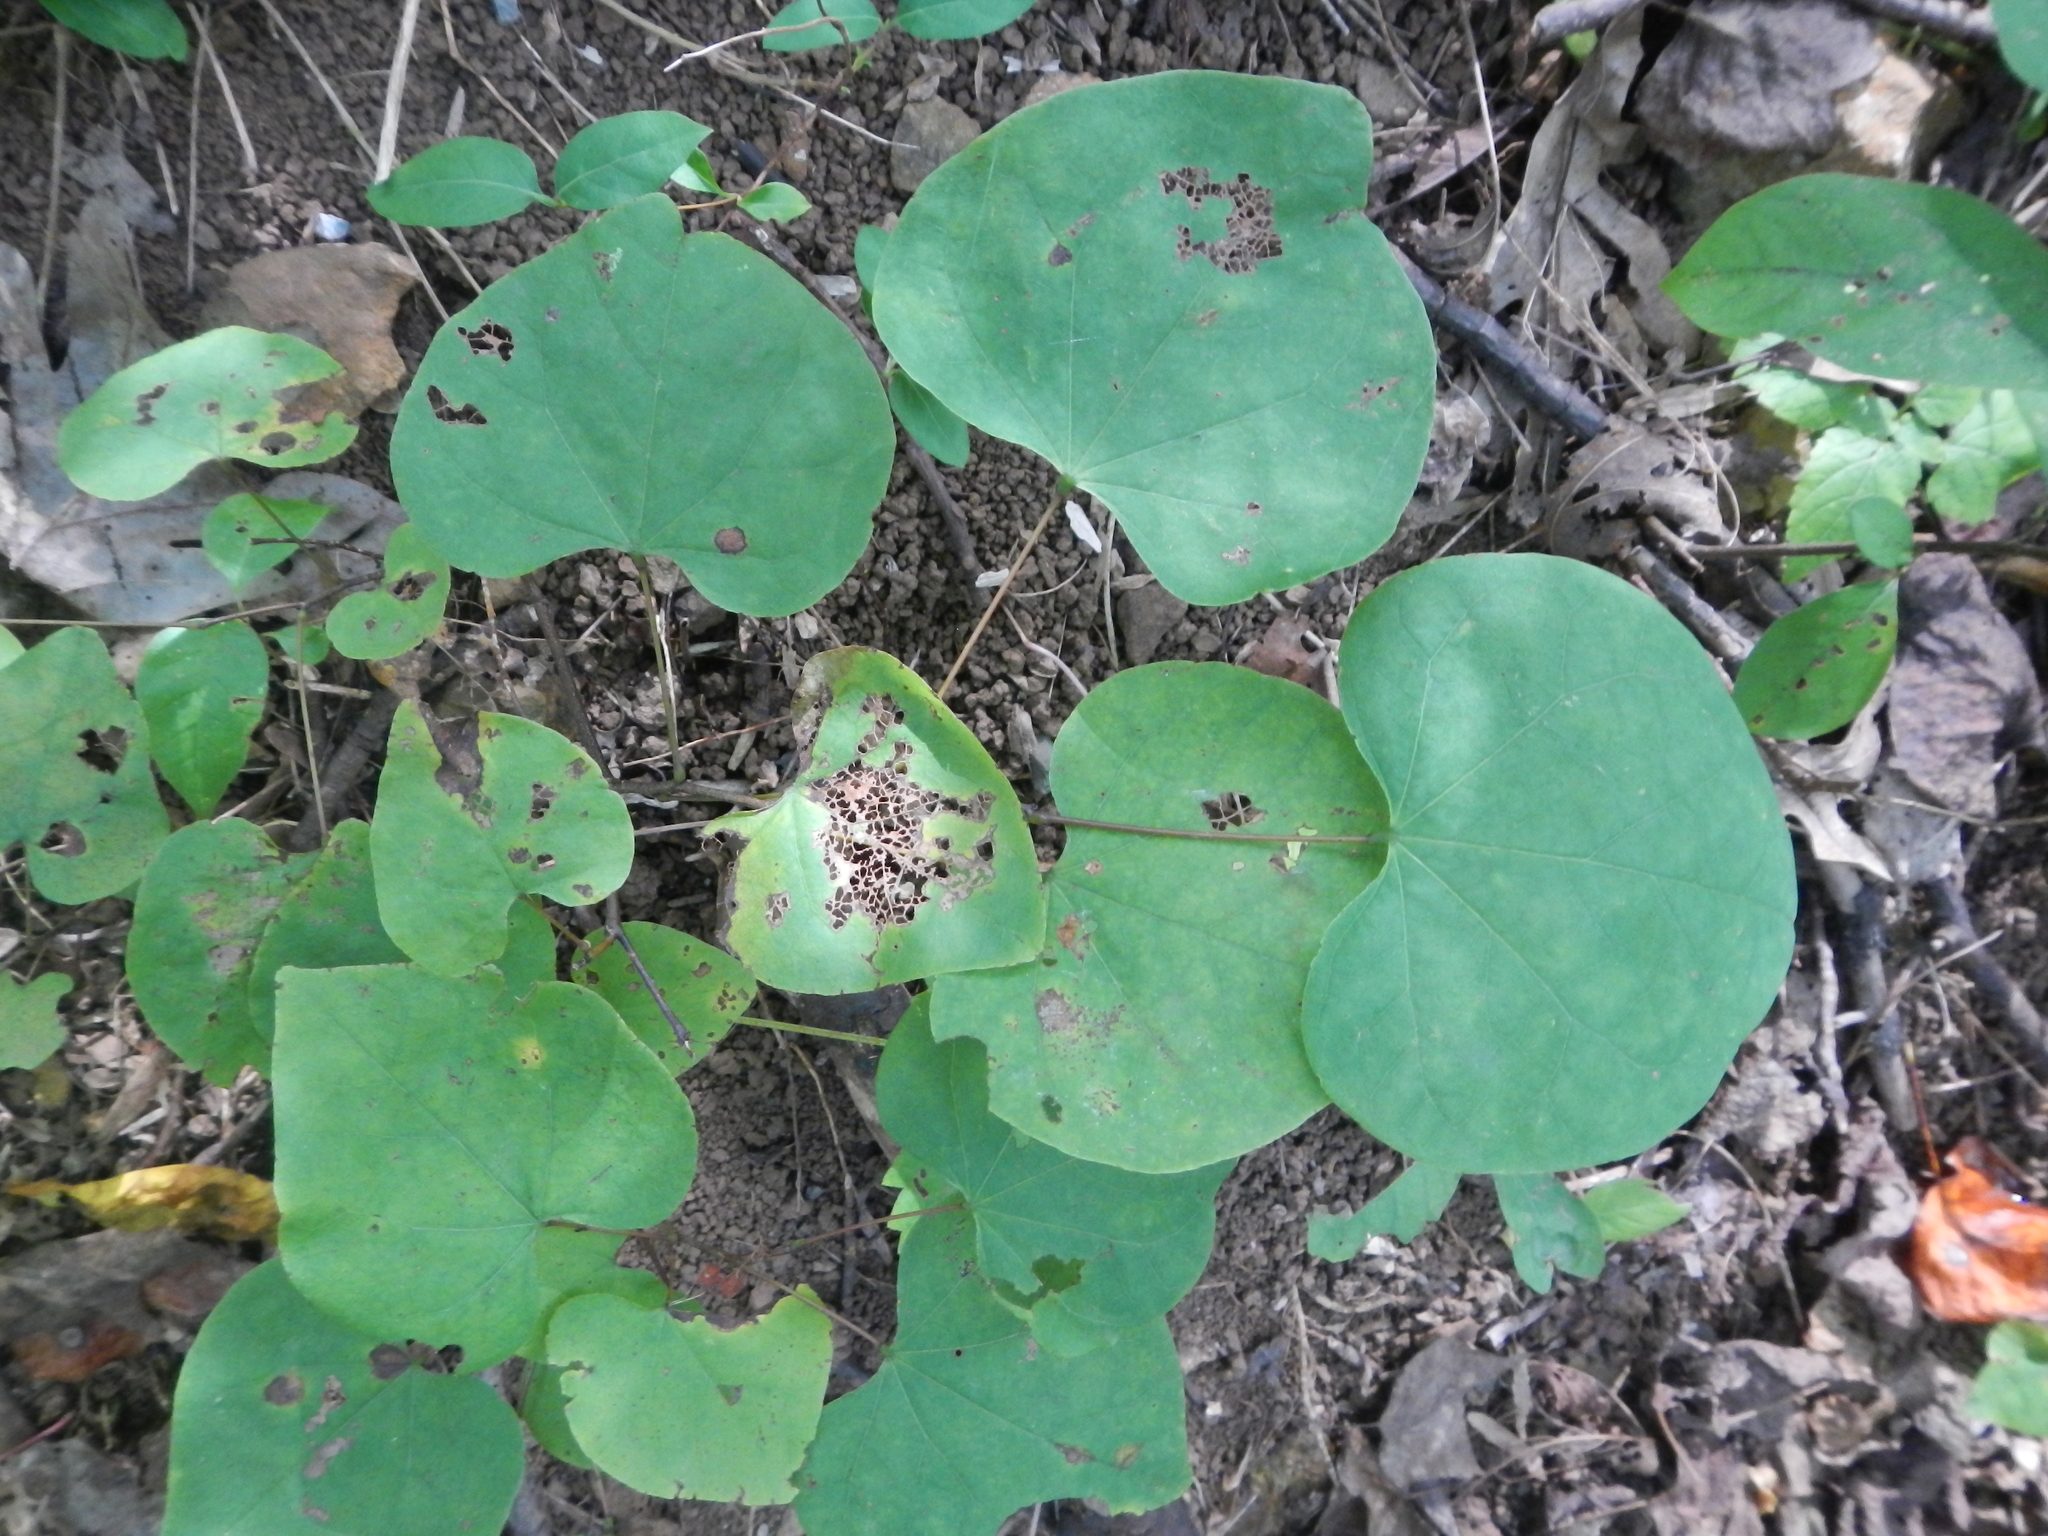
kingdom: Plantae
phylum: Tracheophyta
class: Magnoliopsida
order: Fabales
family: Fabaceae
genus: Cercis
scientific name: Cercis canadensis
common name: Eastern redbud
